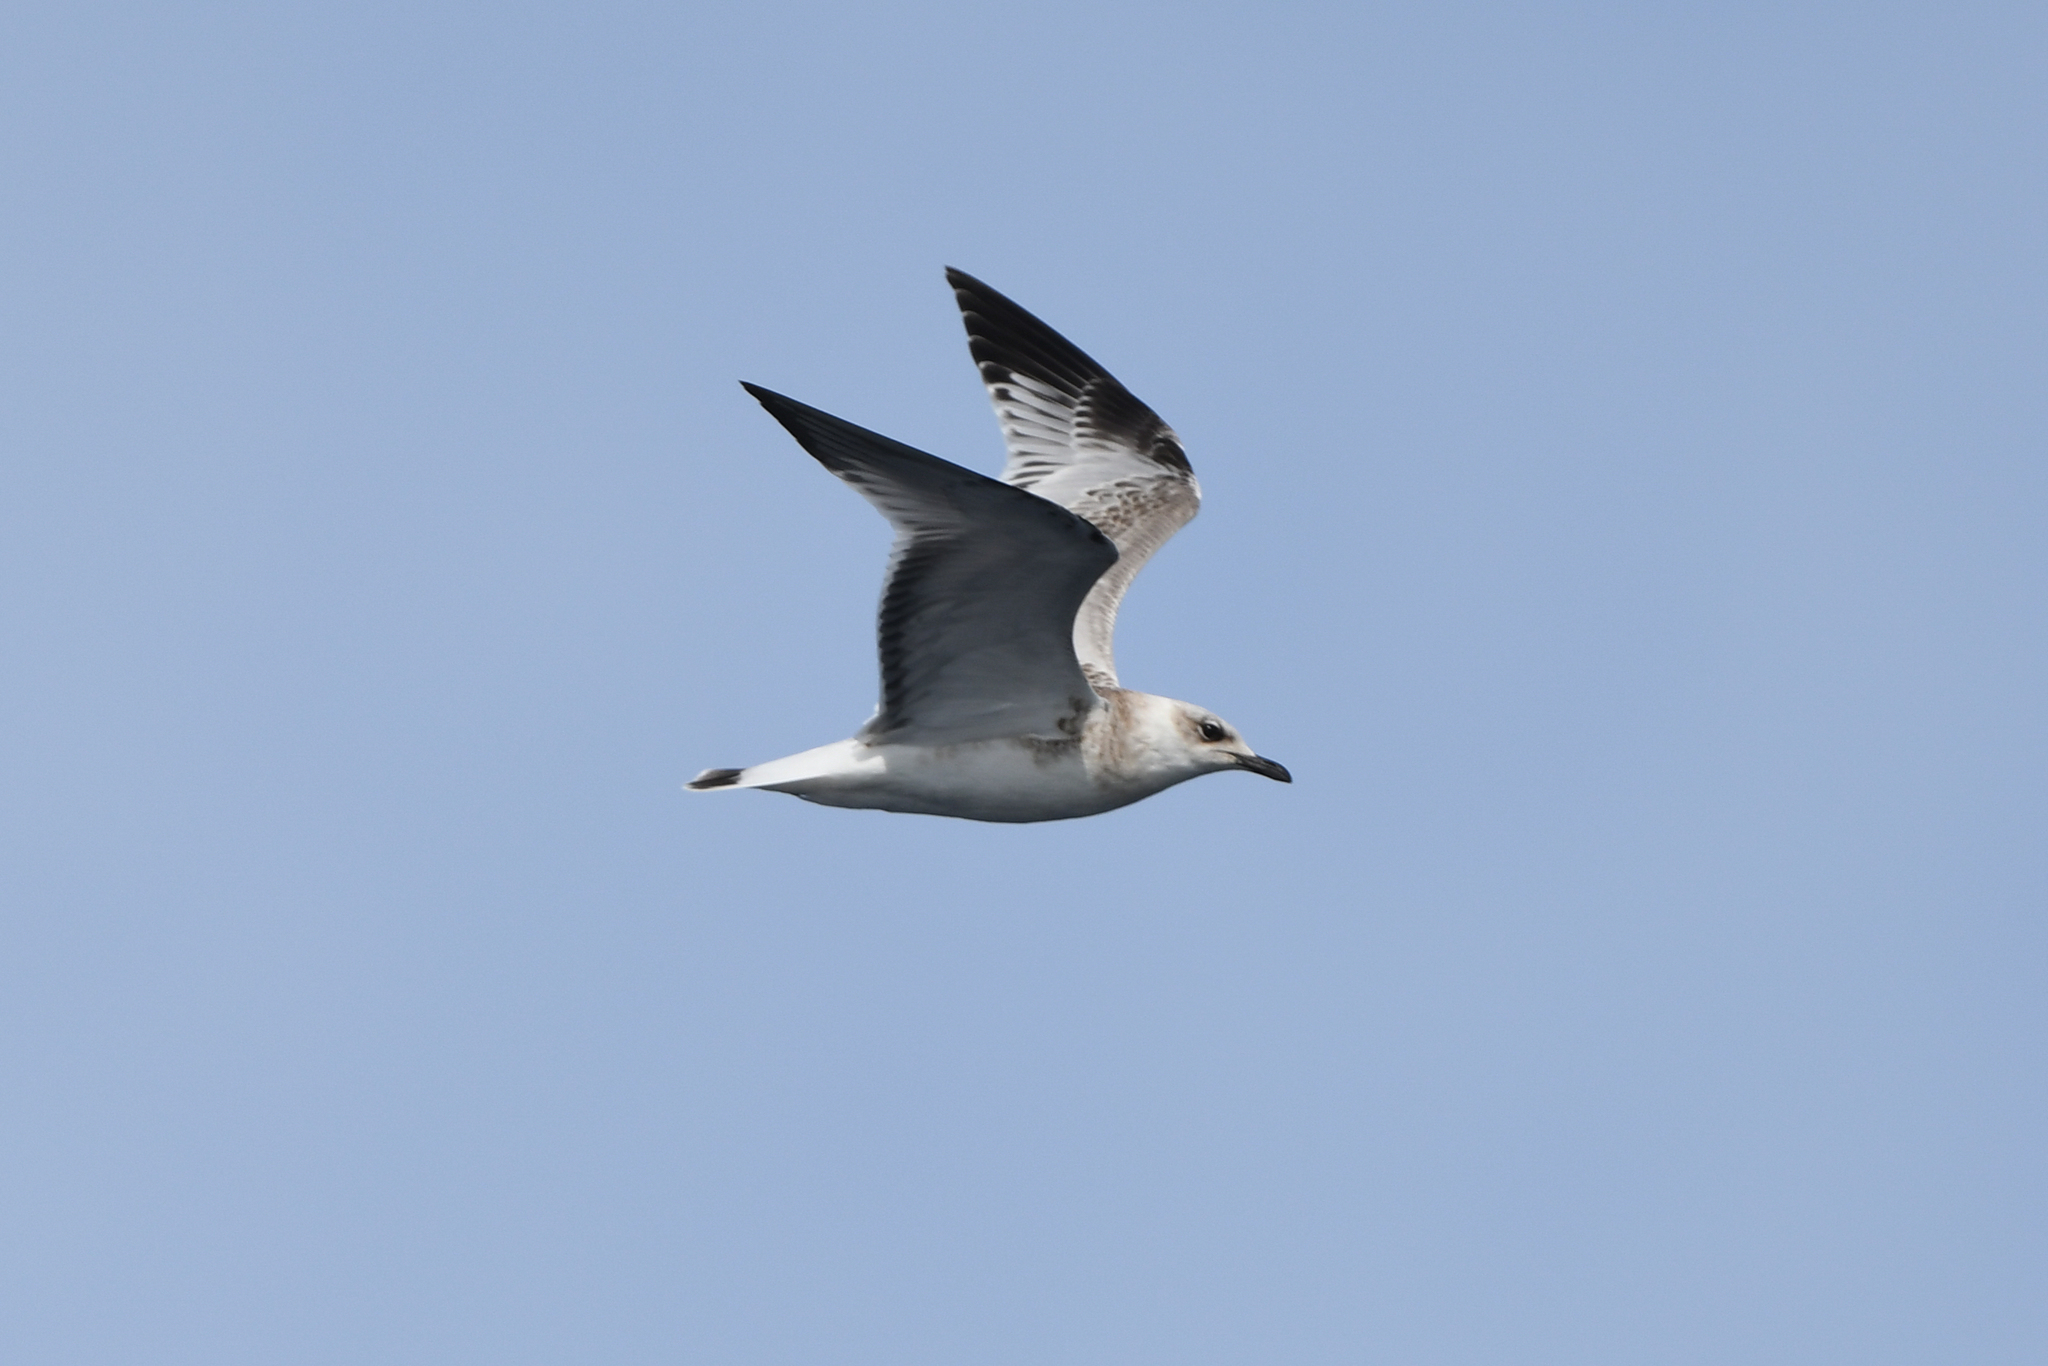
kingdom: Animalia
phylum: Chordata
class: Aves
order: Charadriiformes
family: Laridae
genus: Ichthyaetus
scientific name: Ichthyaetus melanocephalus
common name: Mediterranean gull
